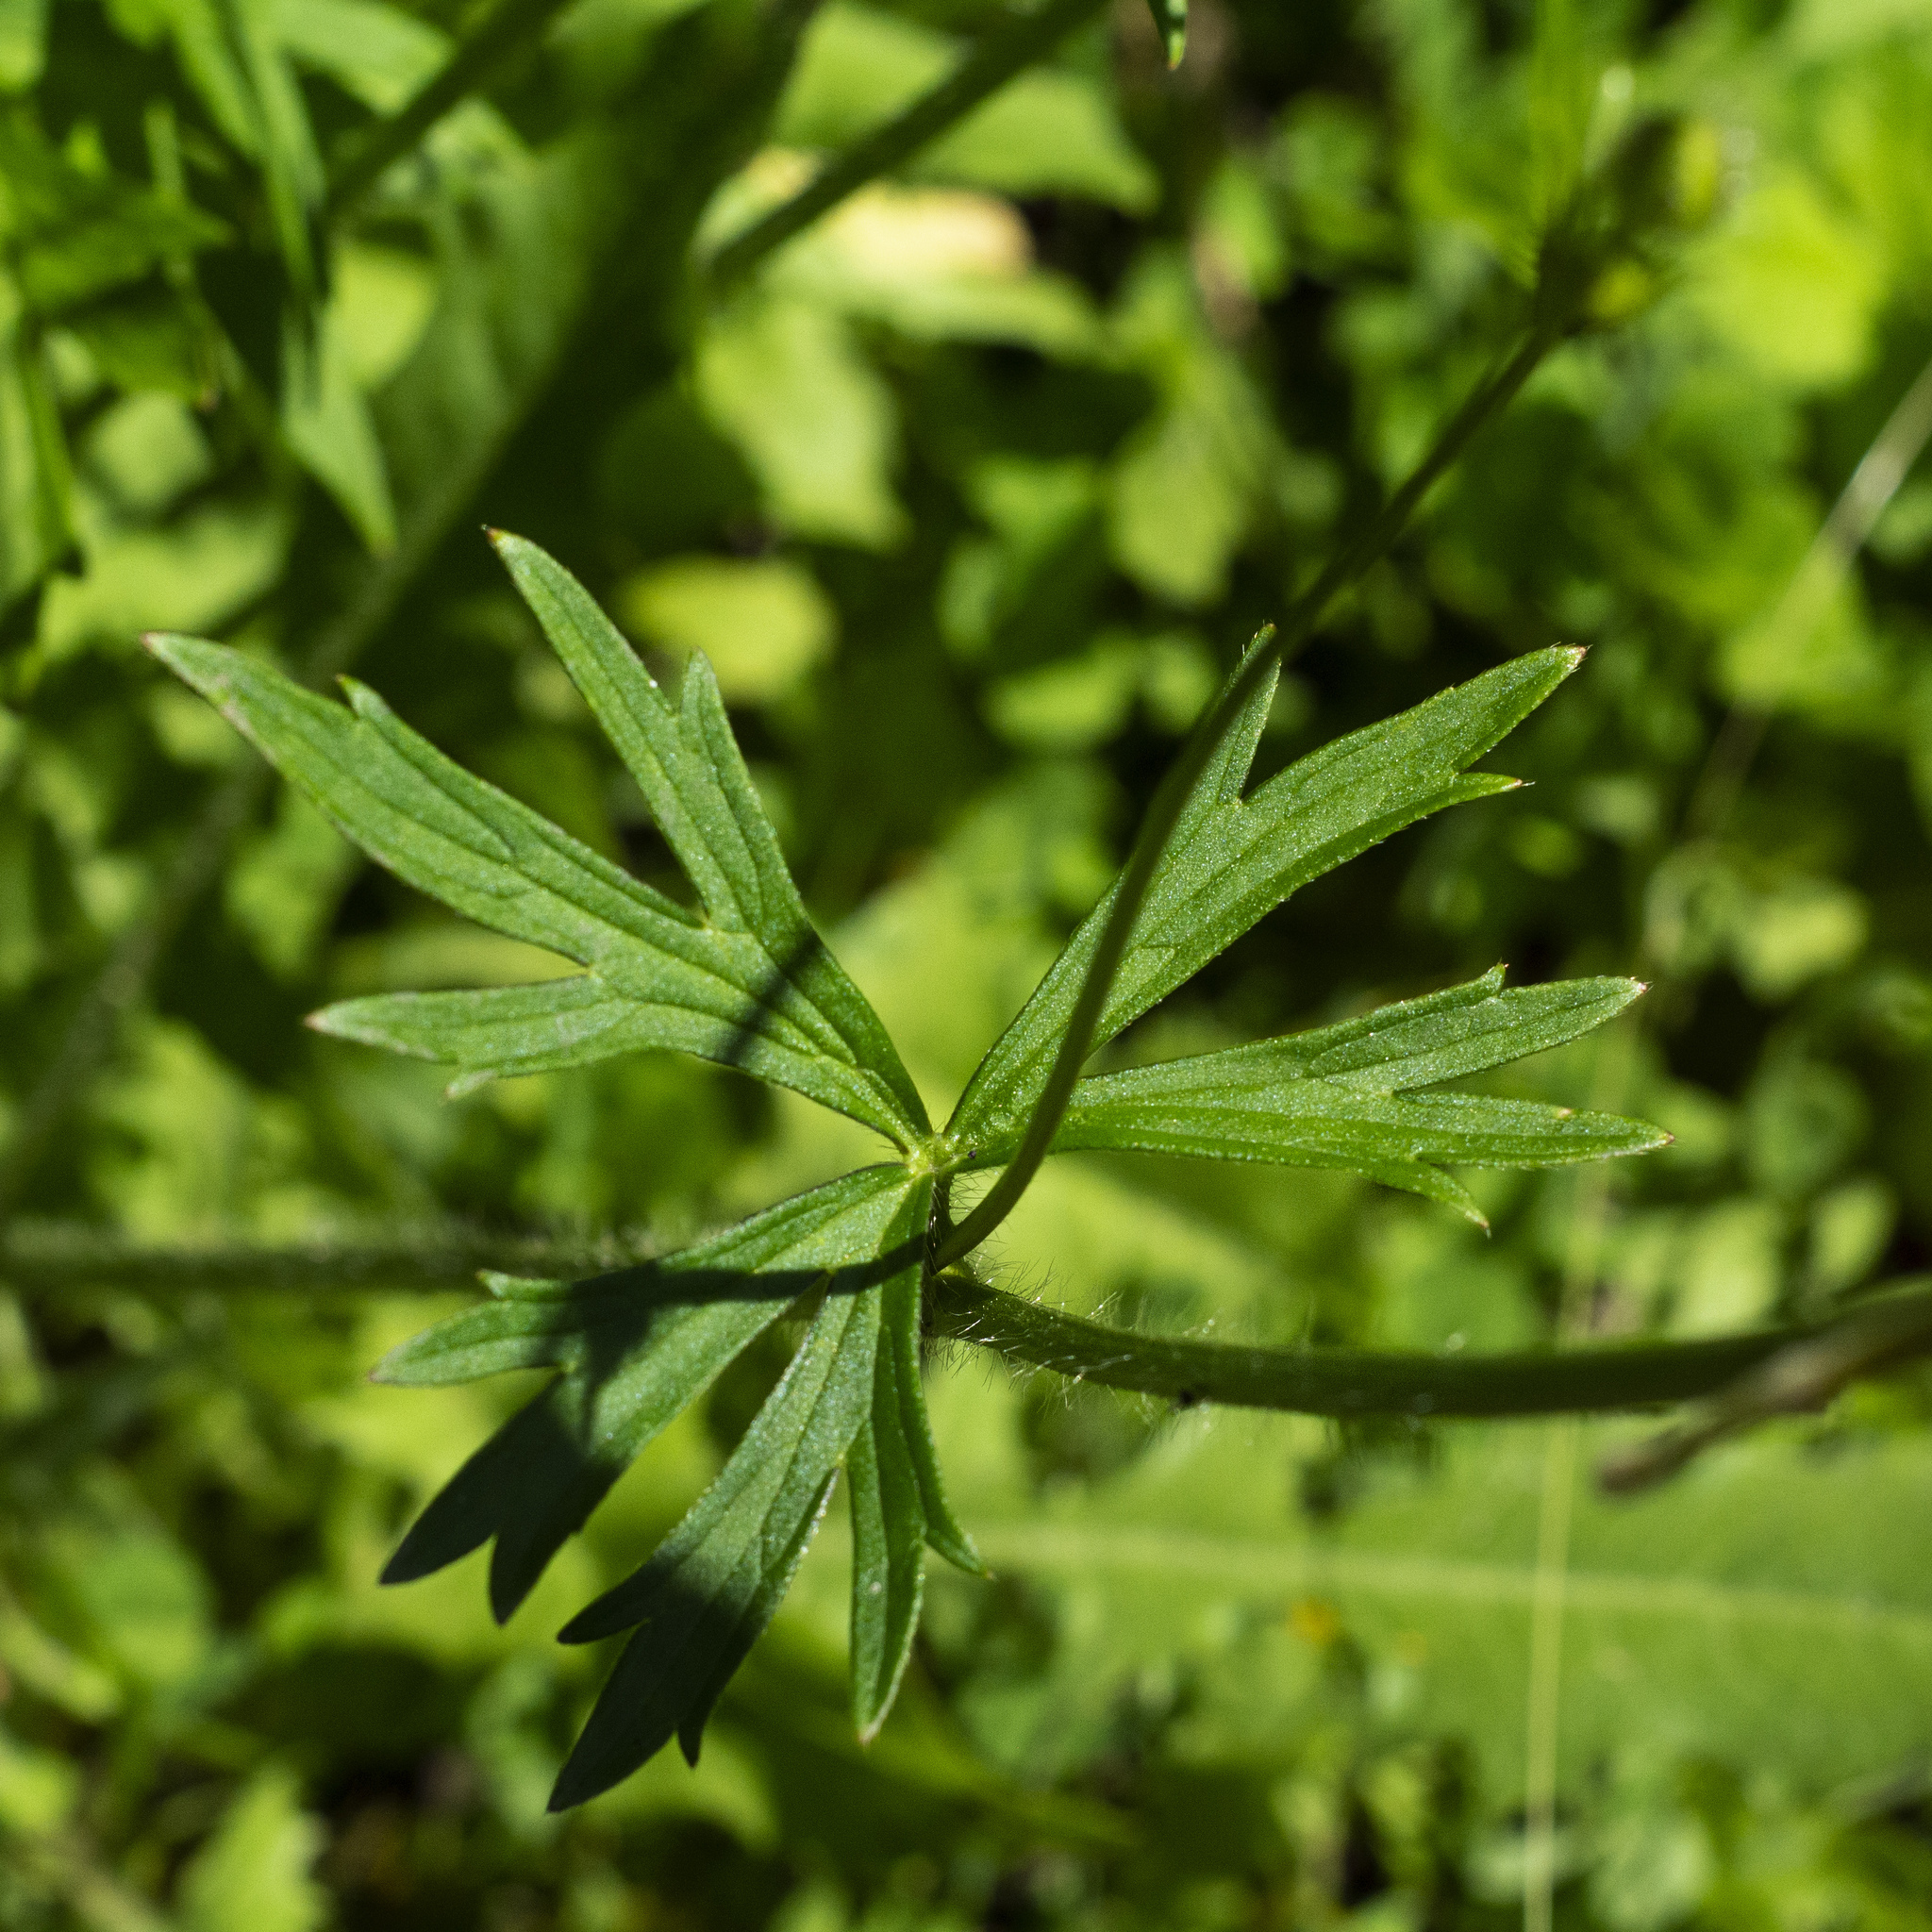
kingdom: Plantae
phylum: Tracheophyta
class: Magnoliopsida
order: Ranunculales
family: Ranunculaceae
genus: Ranunculus
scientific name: Ranunculus polyanthemos
